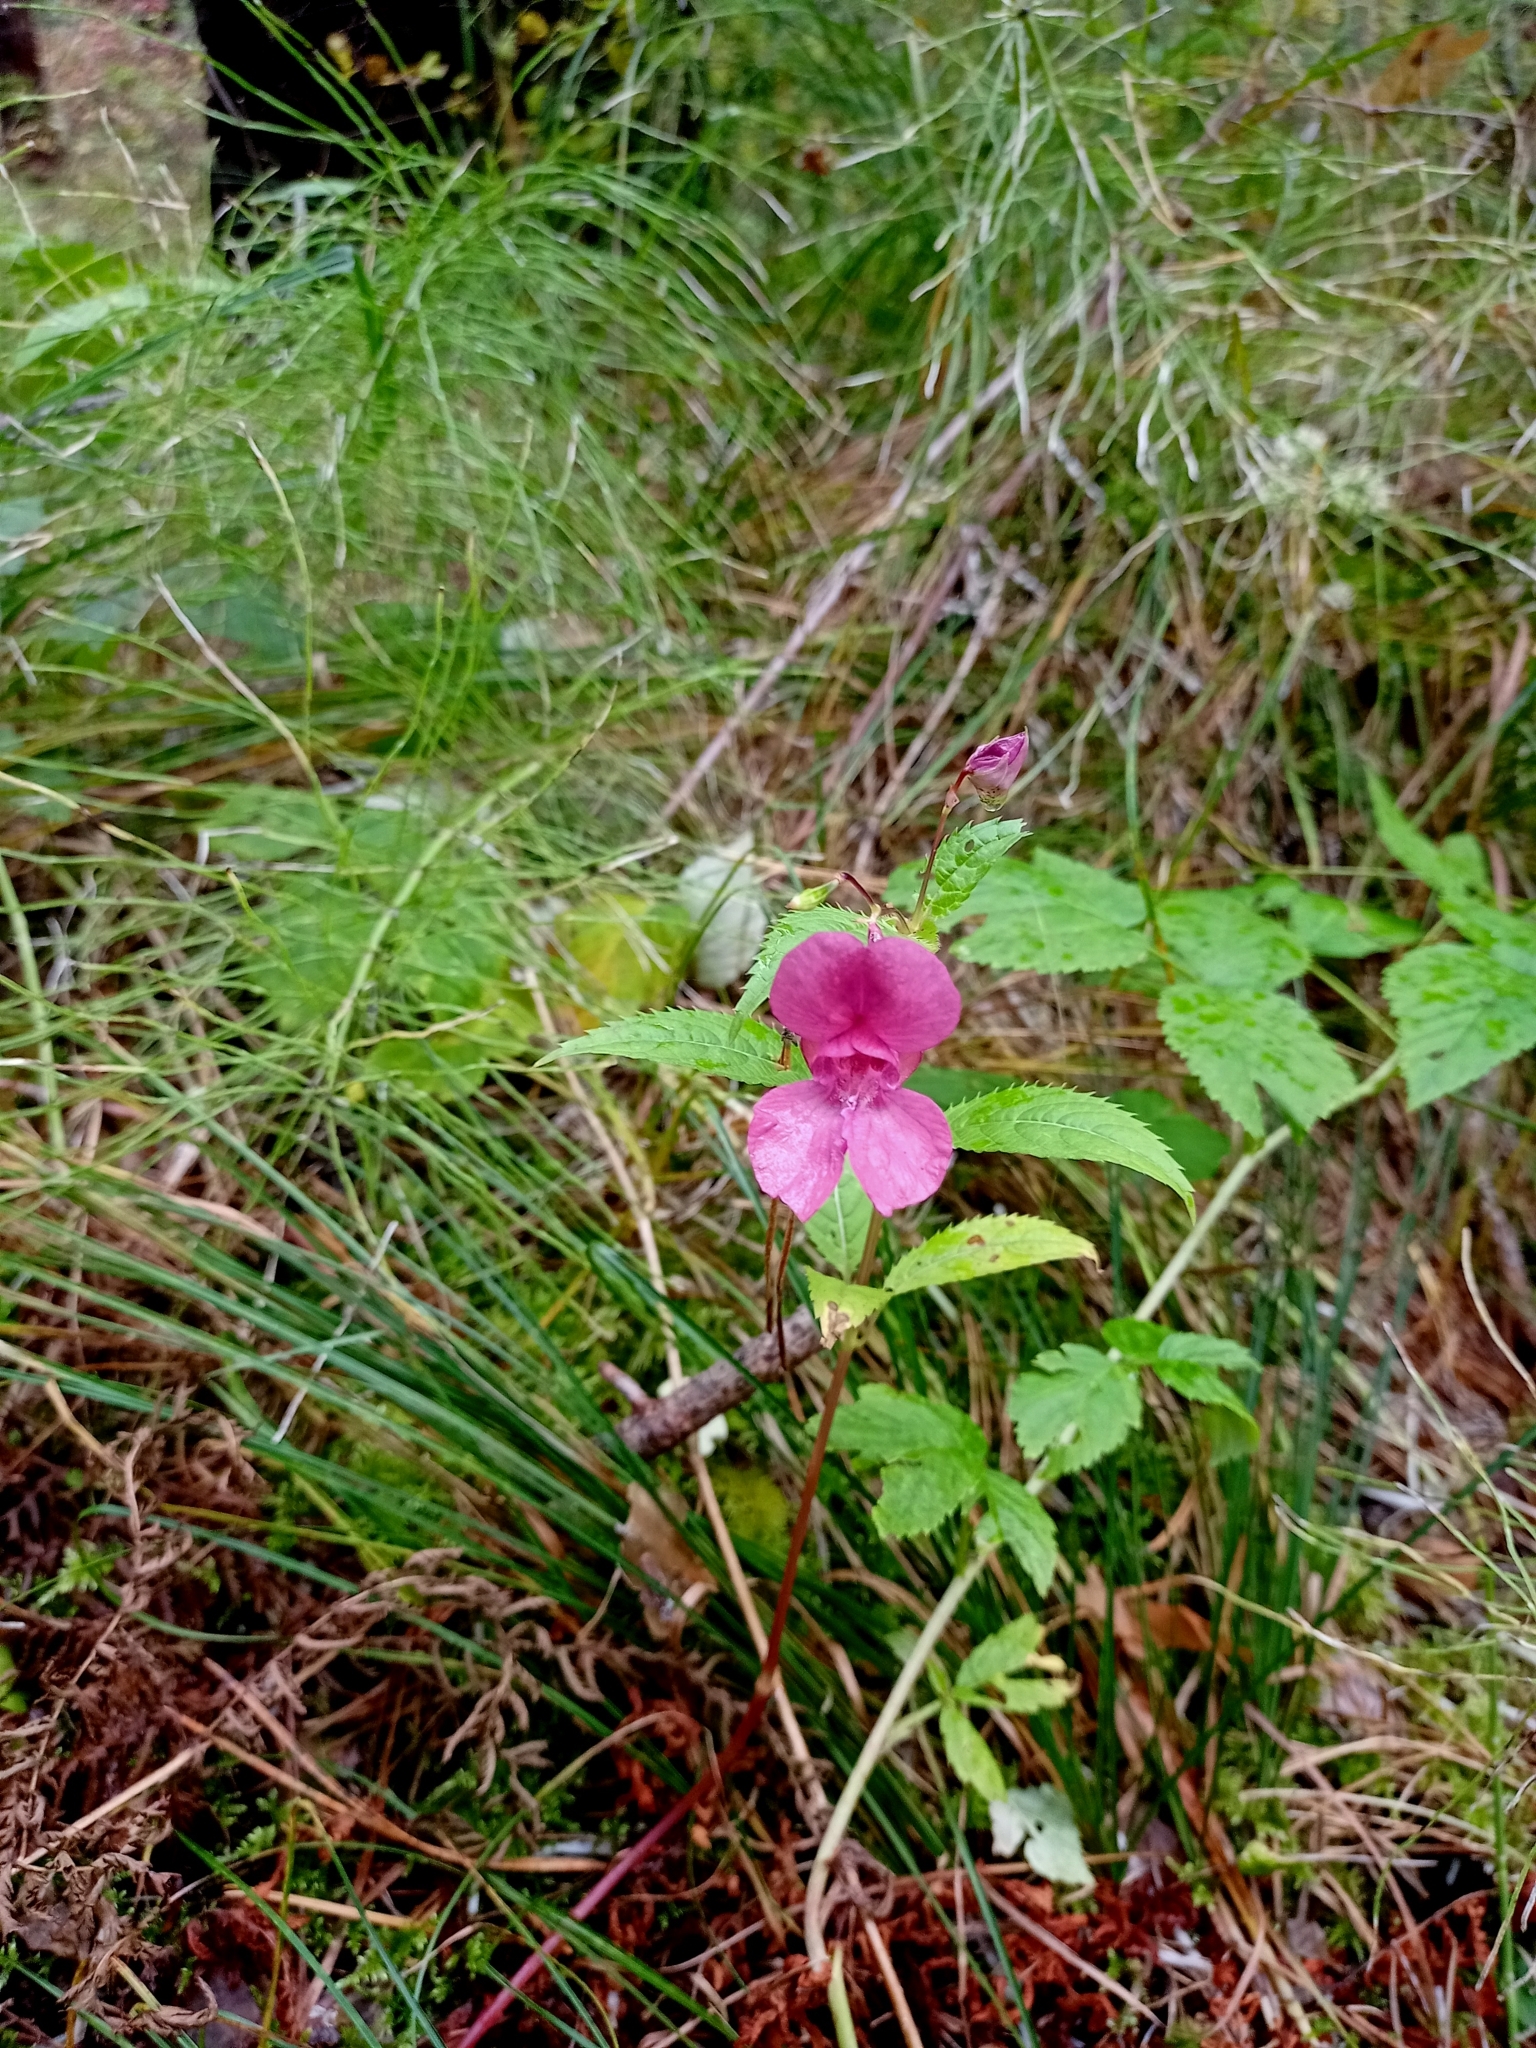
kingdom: Plantae
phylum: Tracheophyta
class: Magnoliopsida
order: Ericales
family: Balsaminaceae
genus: Impatiens
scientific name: Impatiens glandulifera
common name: Himalayan balsam
